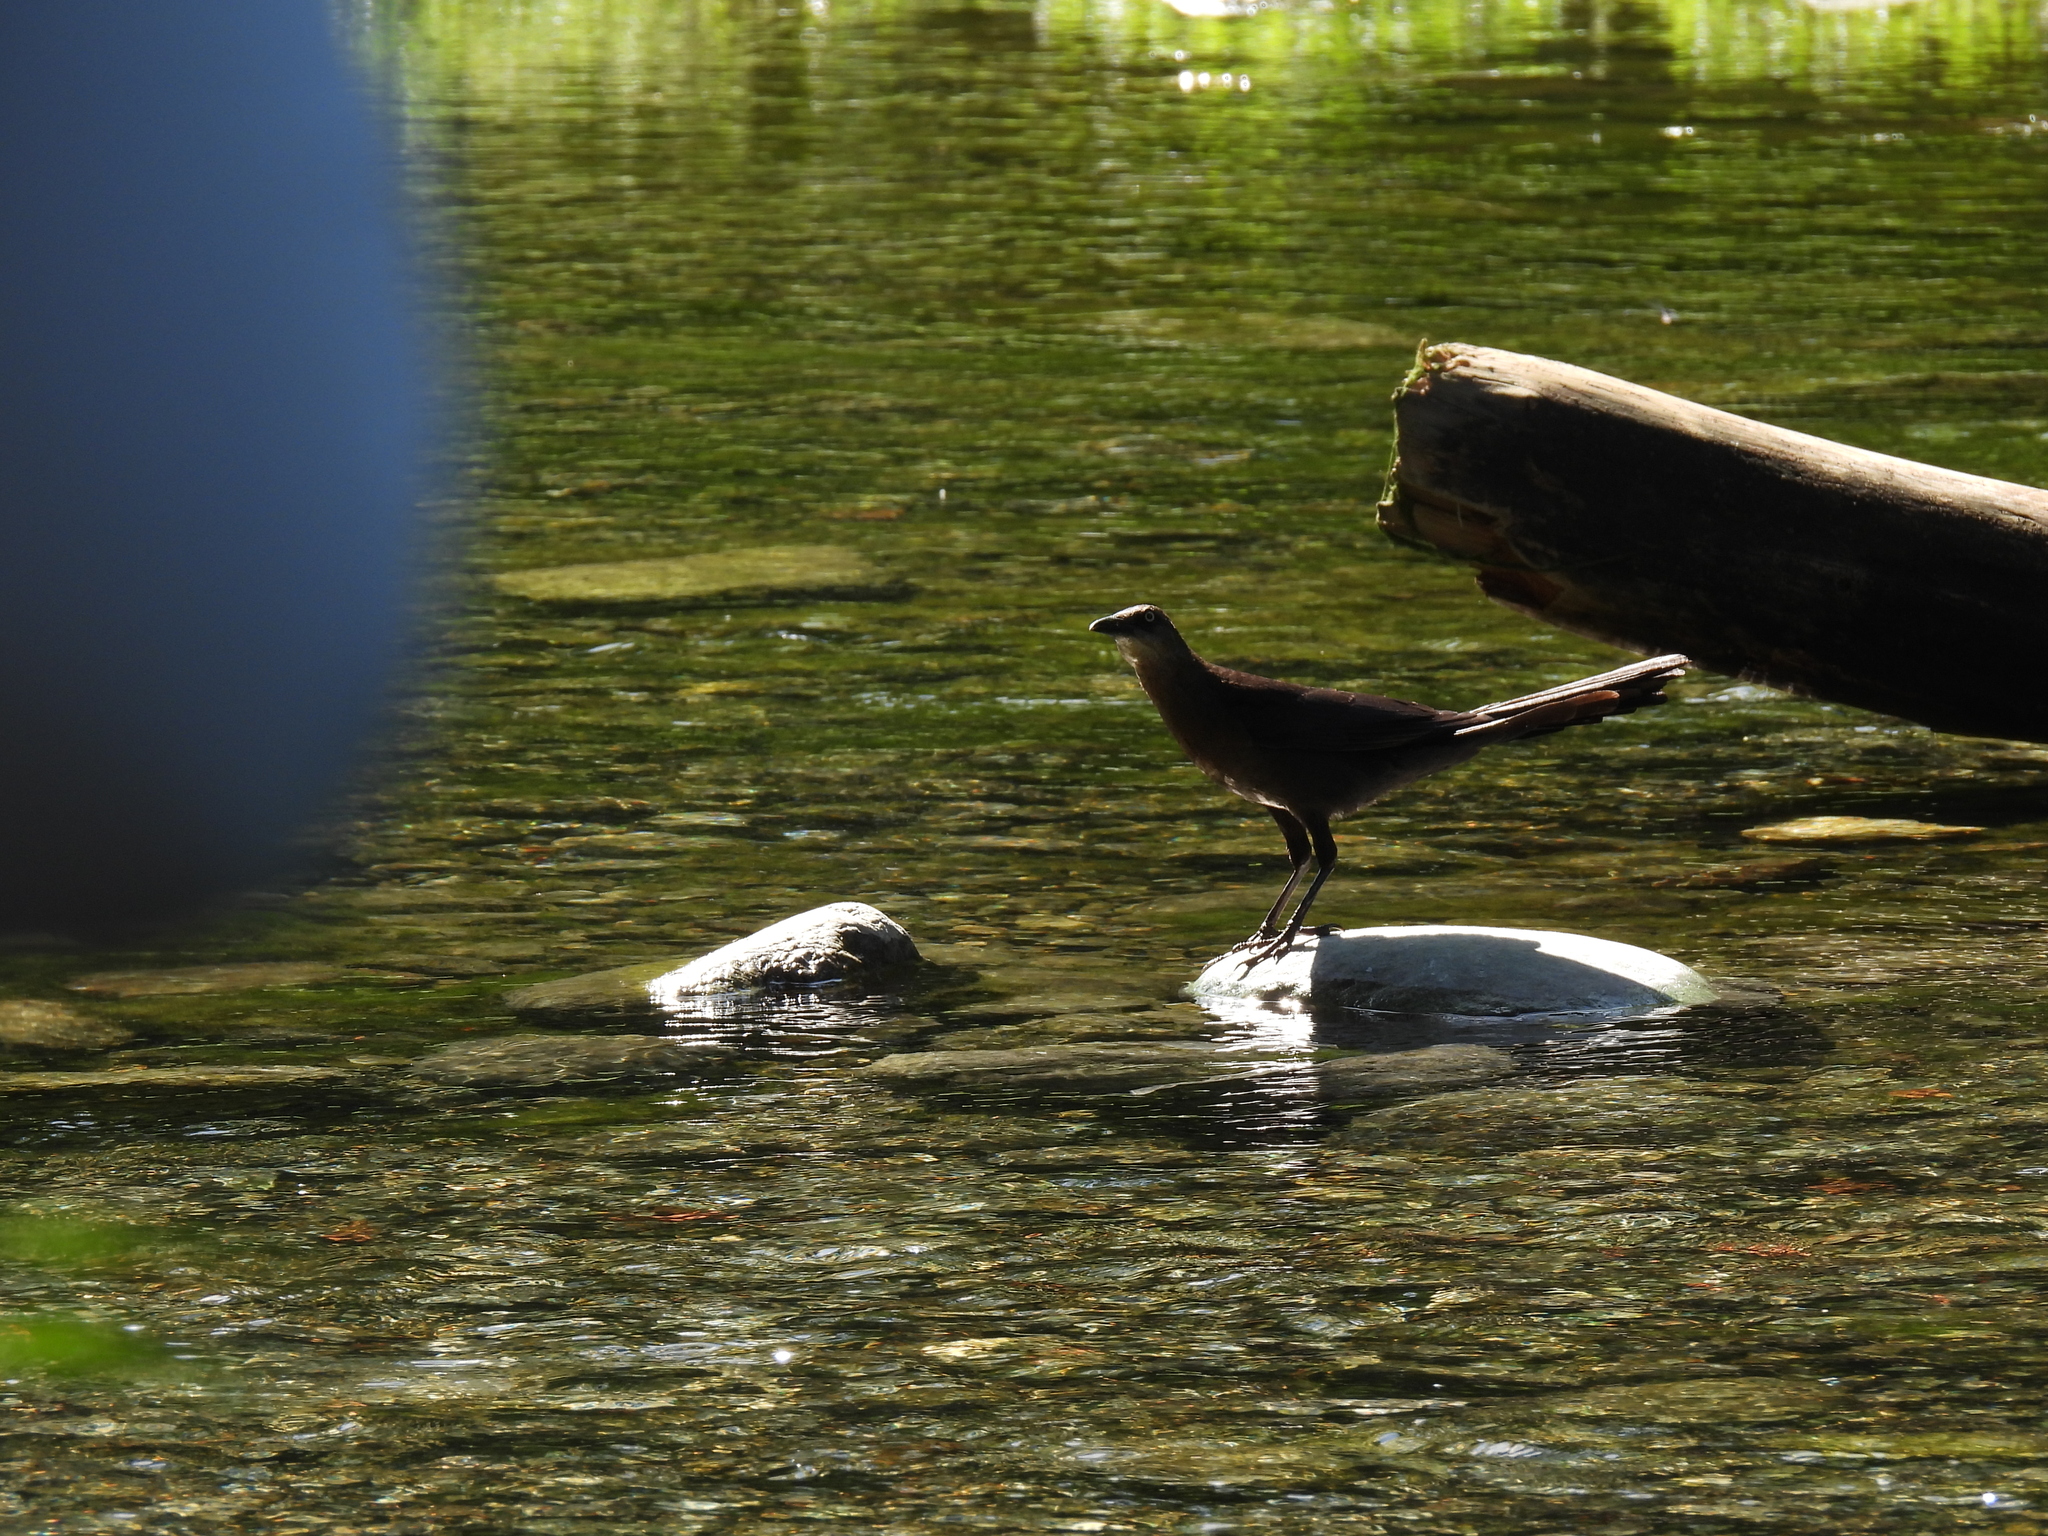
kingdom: Animalia
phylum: Chordata
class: Aves
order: Passeriformes
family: Icteridae
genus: Quiscalus
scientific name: Quiscalus mexicanus
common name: Great-tailed grackle
